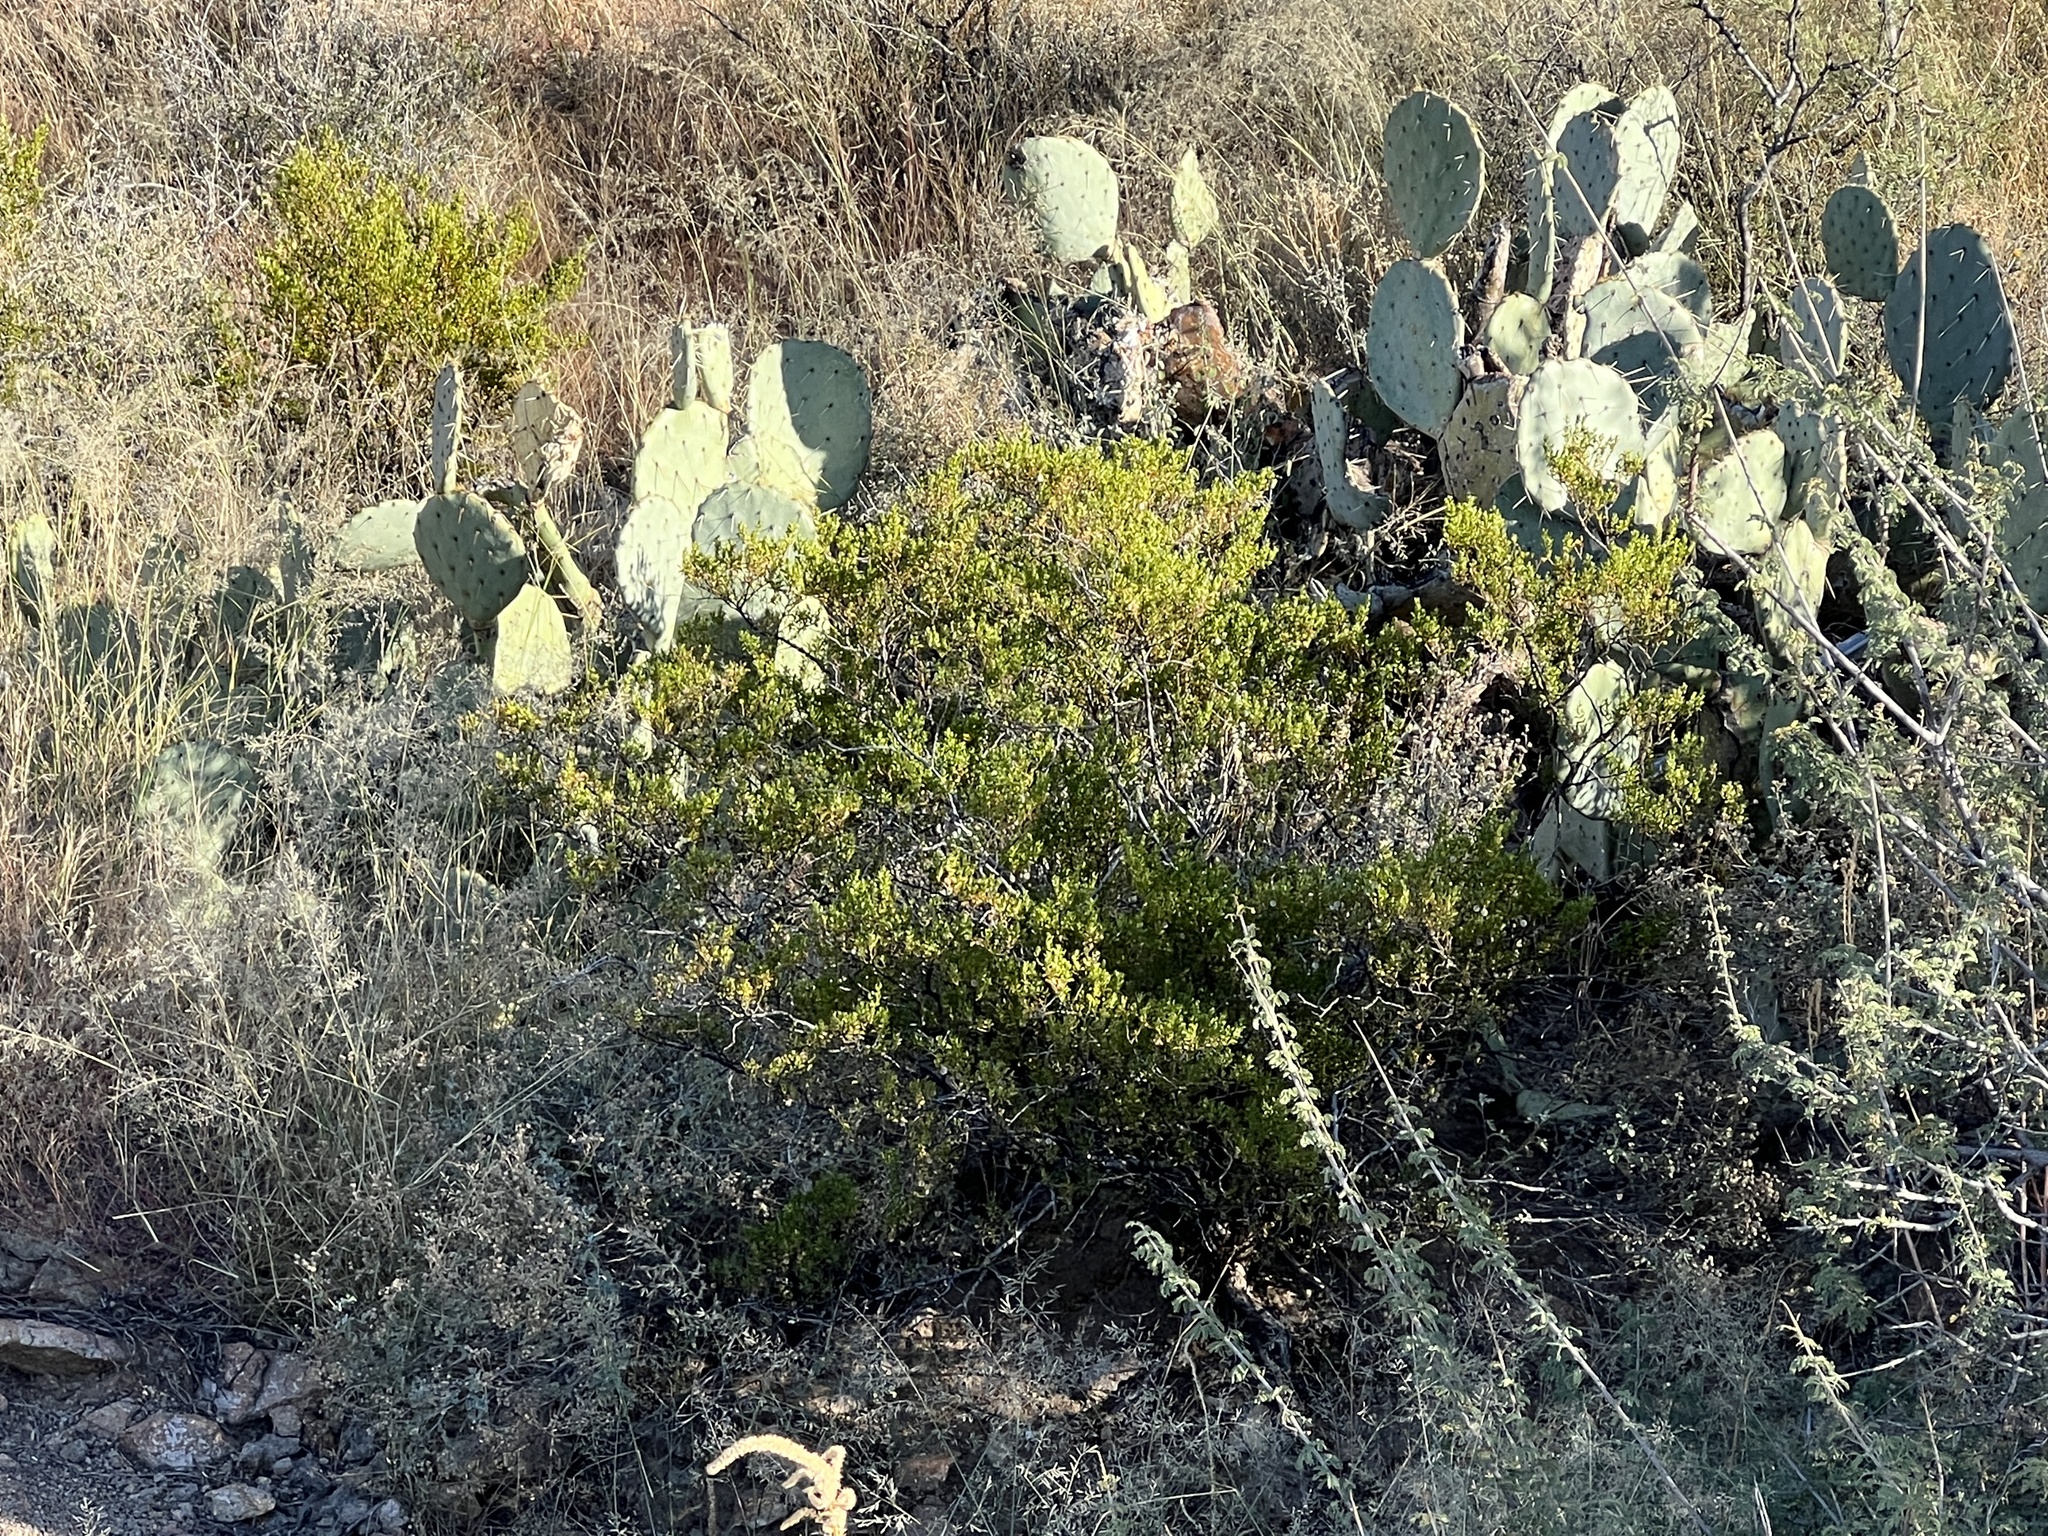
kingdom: Plantae
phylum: Tracheophyta
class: Magnoliopsida
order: Zygophyllales
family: Zygophyllaceae
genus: Larrea
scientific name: Larrea tridentata
